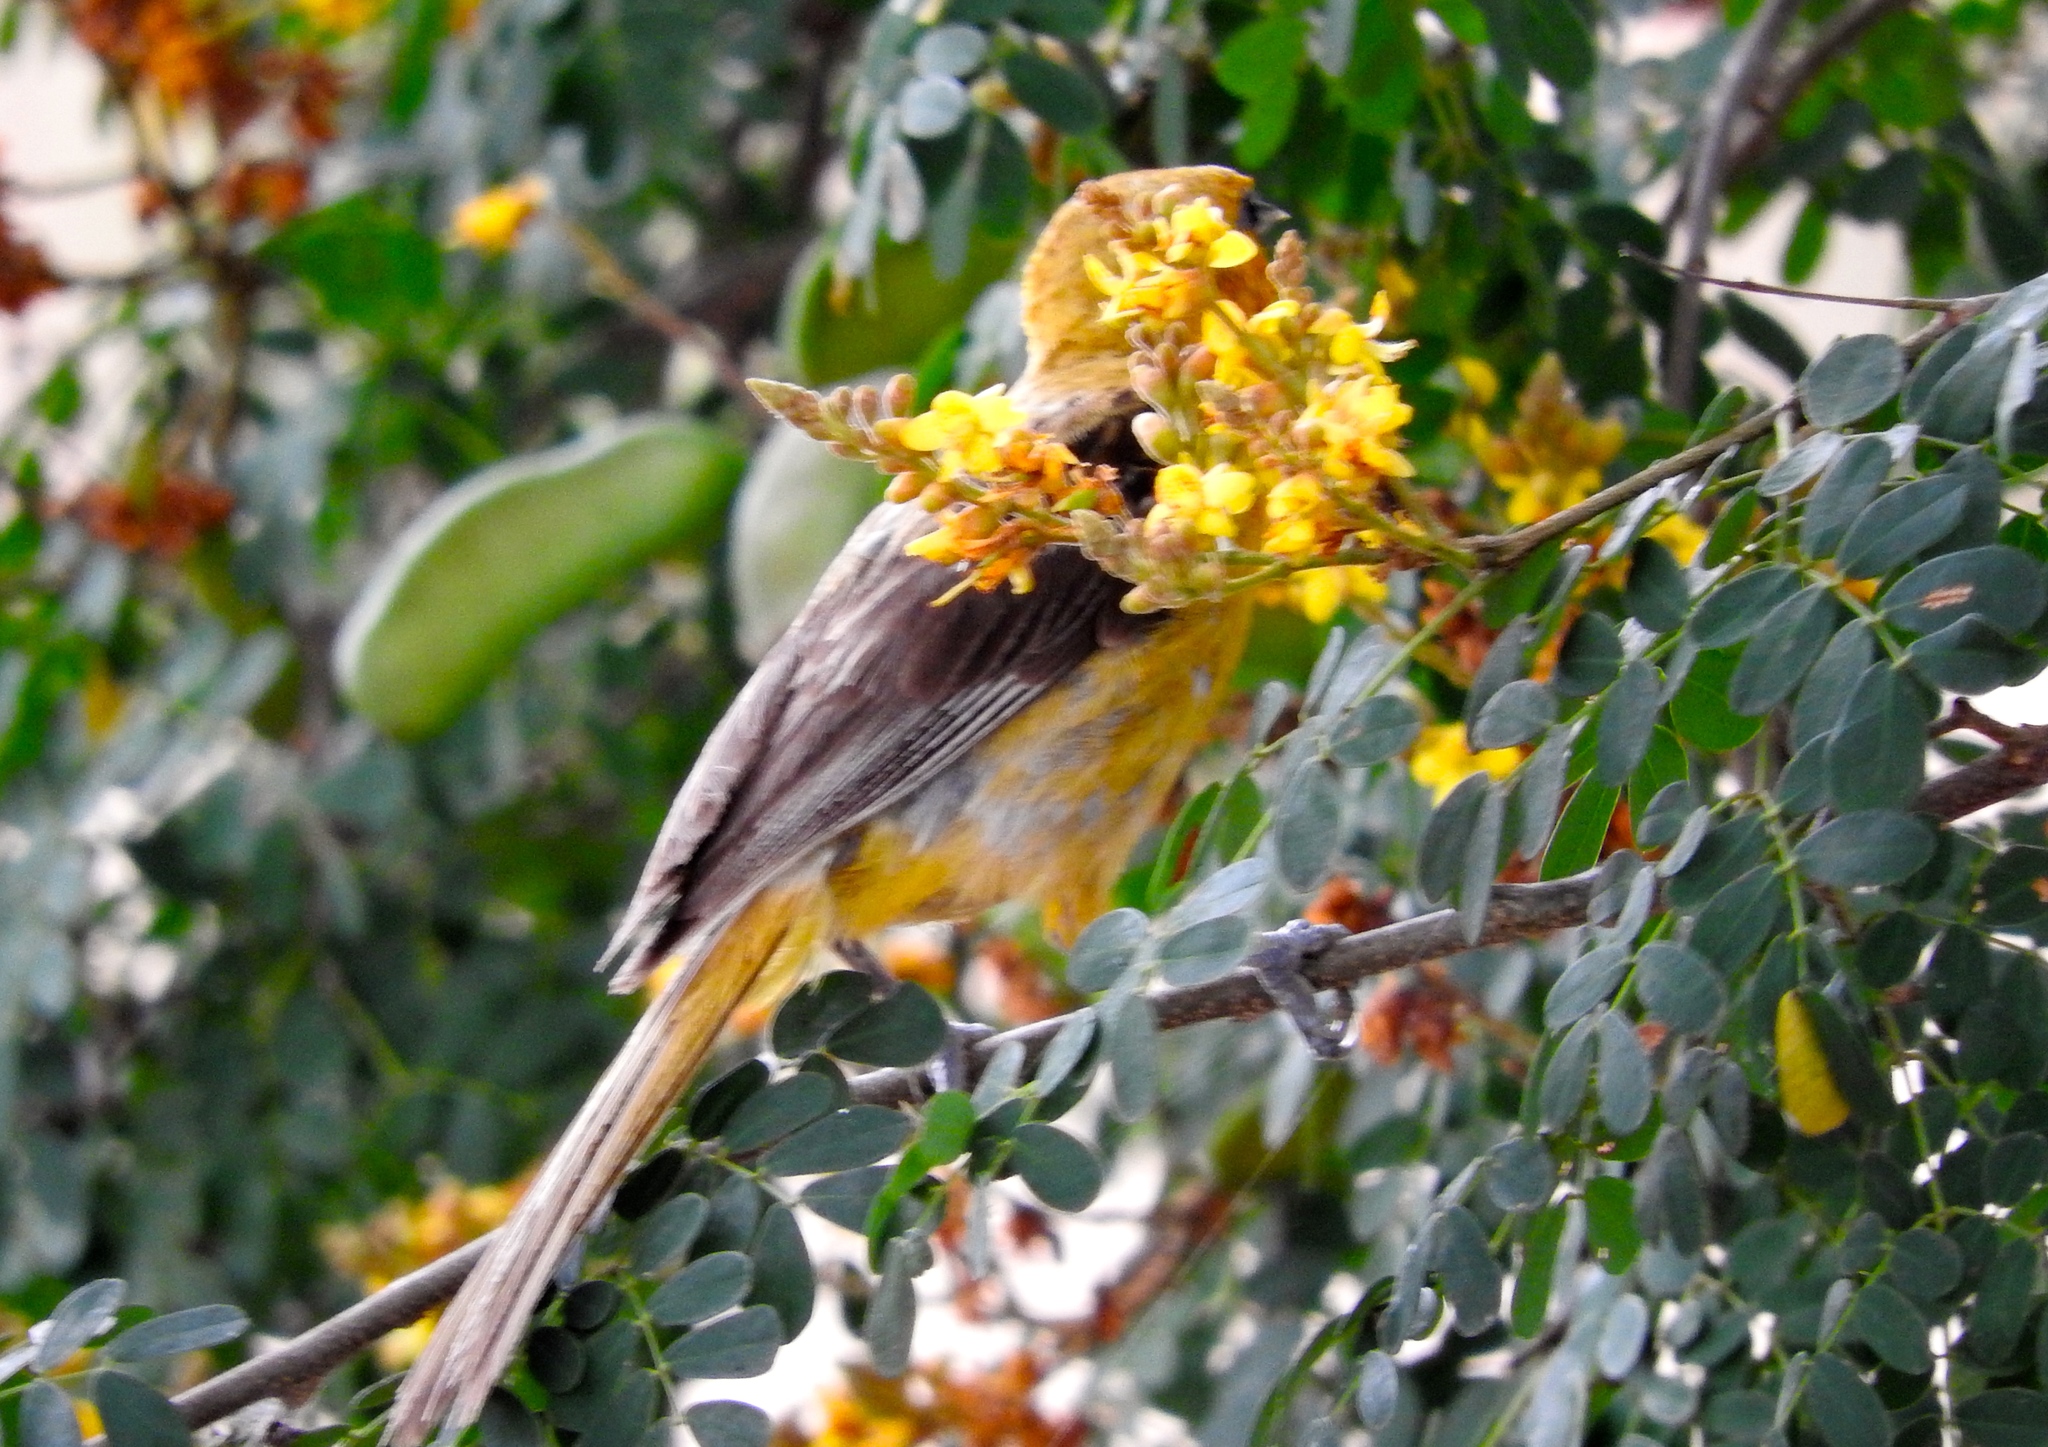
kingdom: Animalia
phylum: Chordata
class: Aves
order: Passeriformes
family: Icteridae
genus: Icterus
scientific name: Icterus pustulatus
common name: Streak-backed oriole
